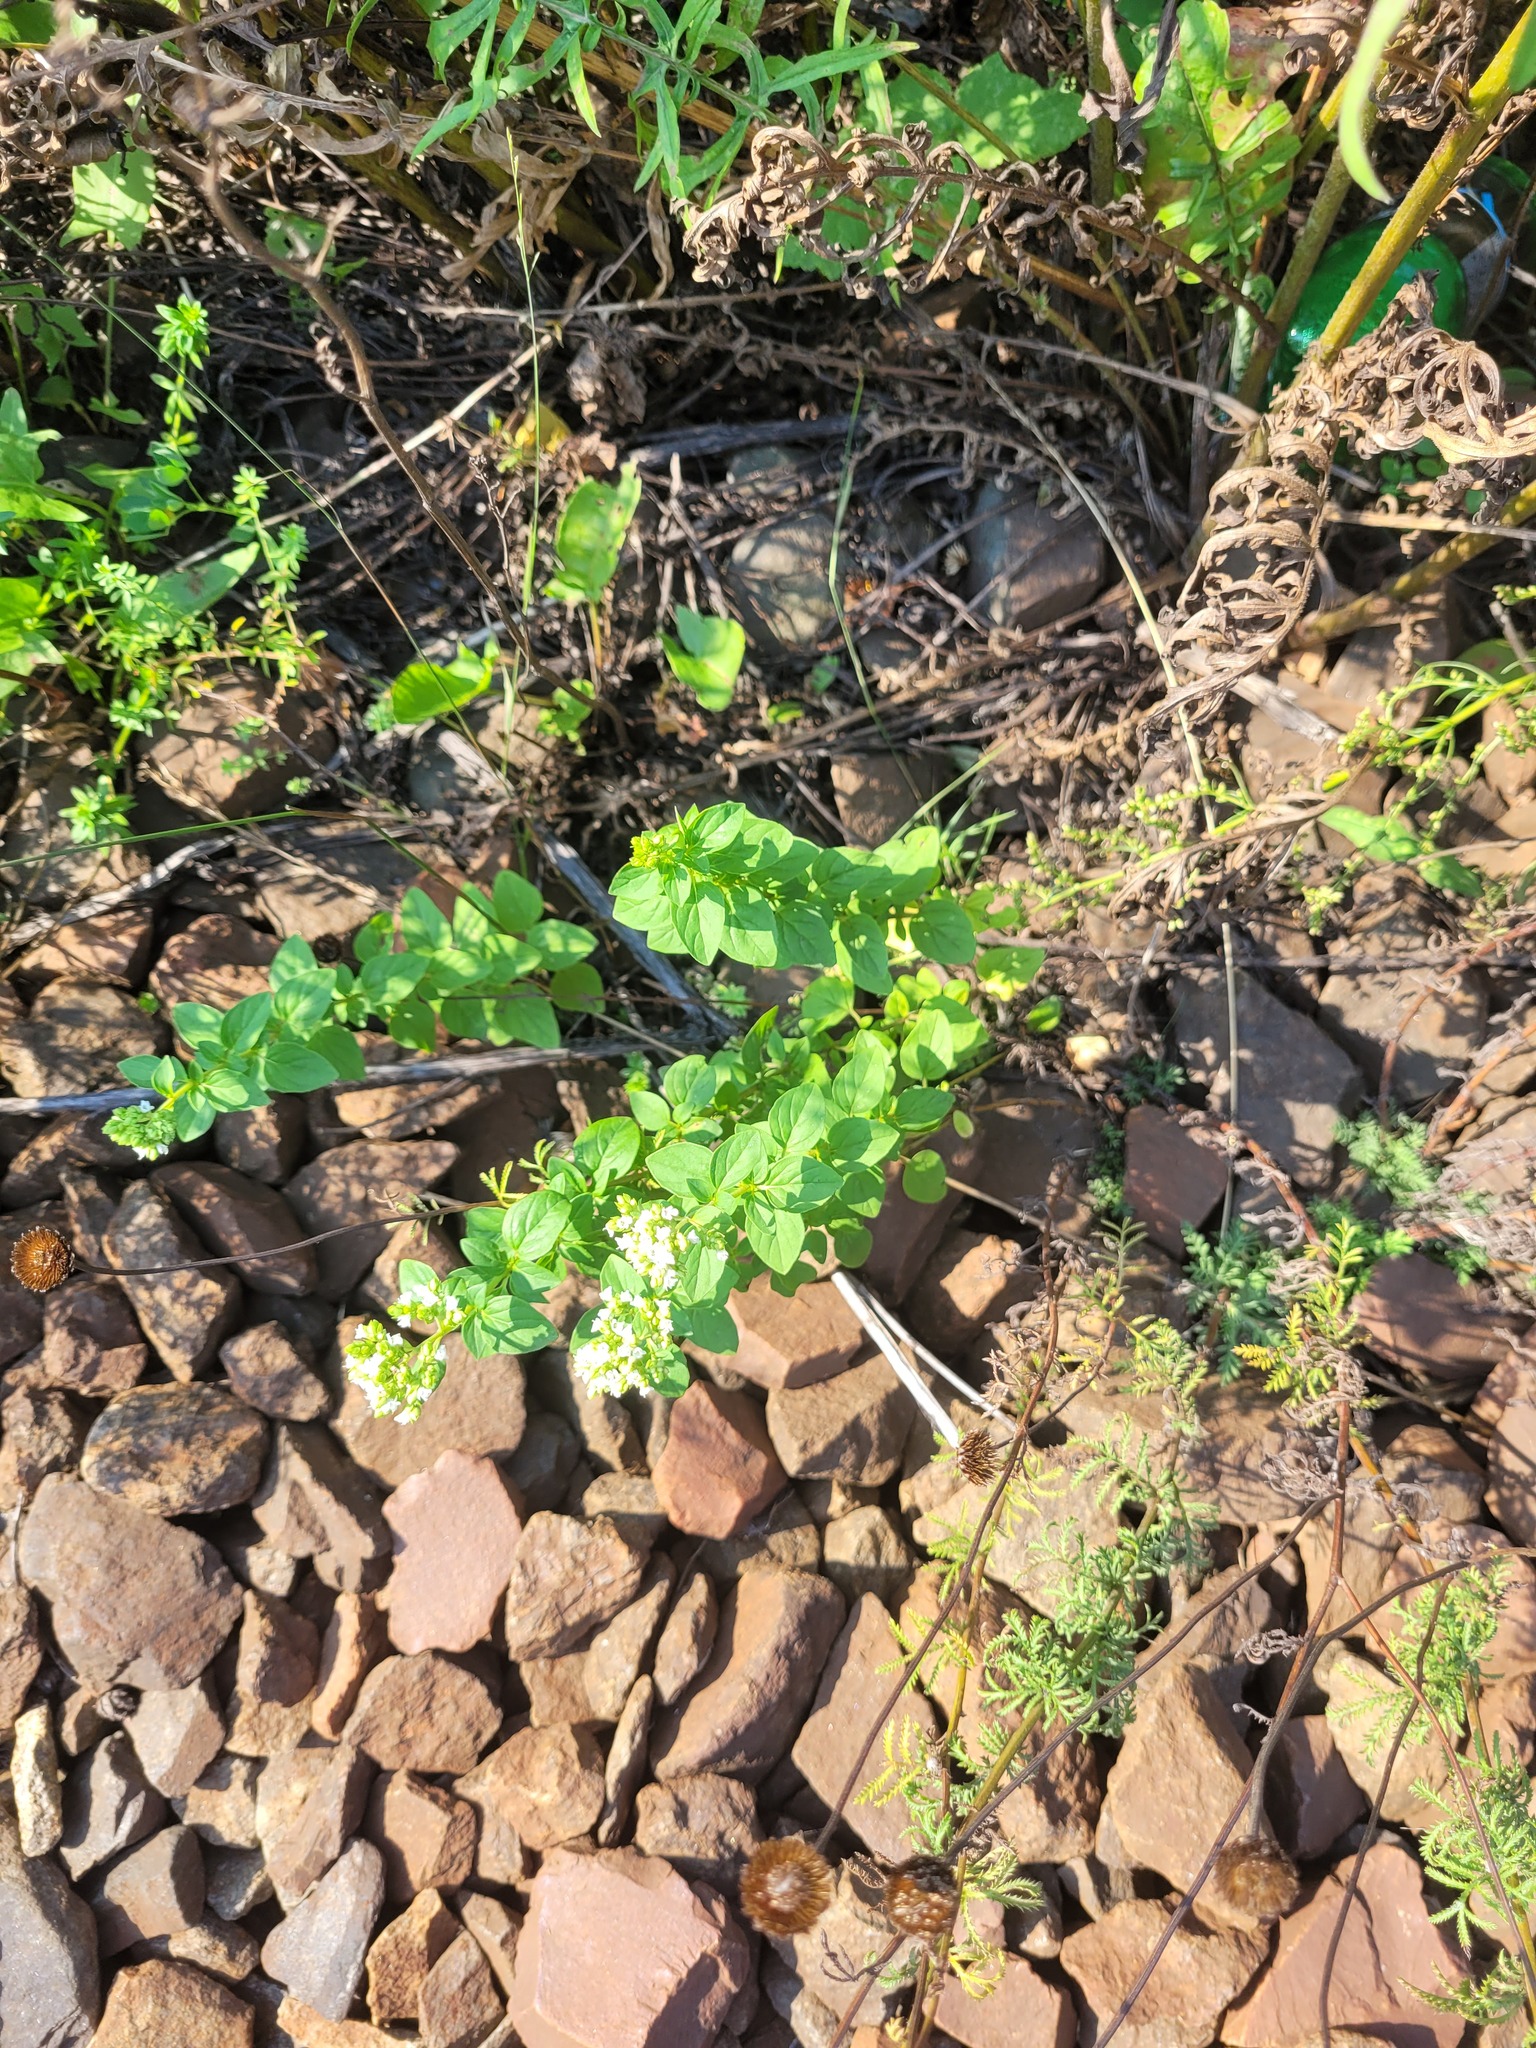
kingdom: Plantae
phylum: Tracheophyta
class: Magnoliopsida
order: Lamiales
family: Lamiaceae
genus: Origanum
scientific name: Origanum vulgare
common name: Wild marjoram
